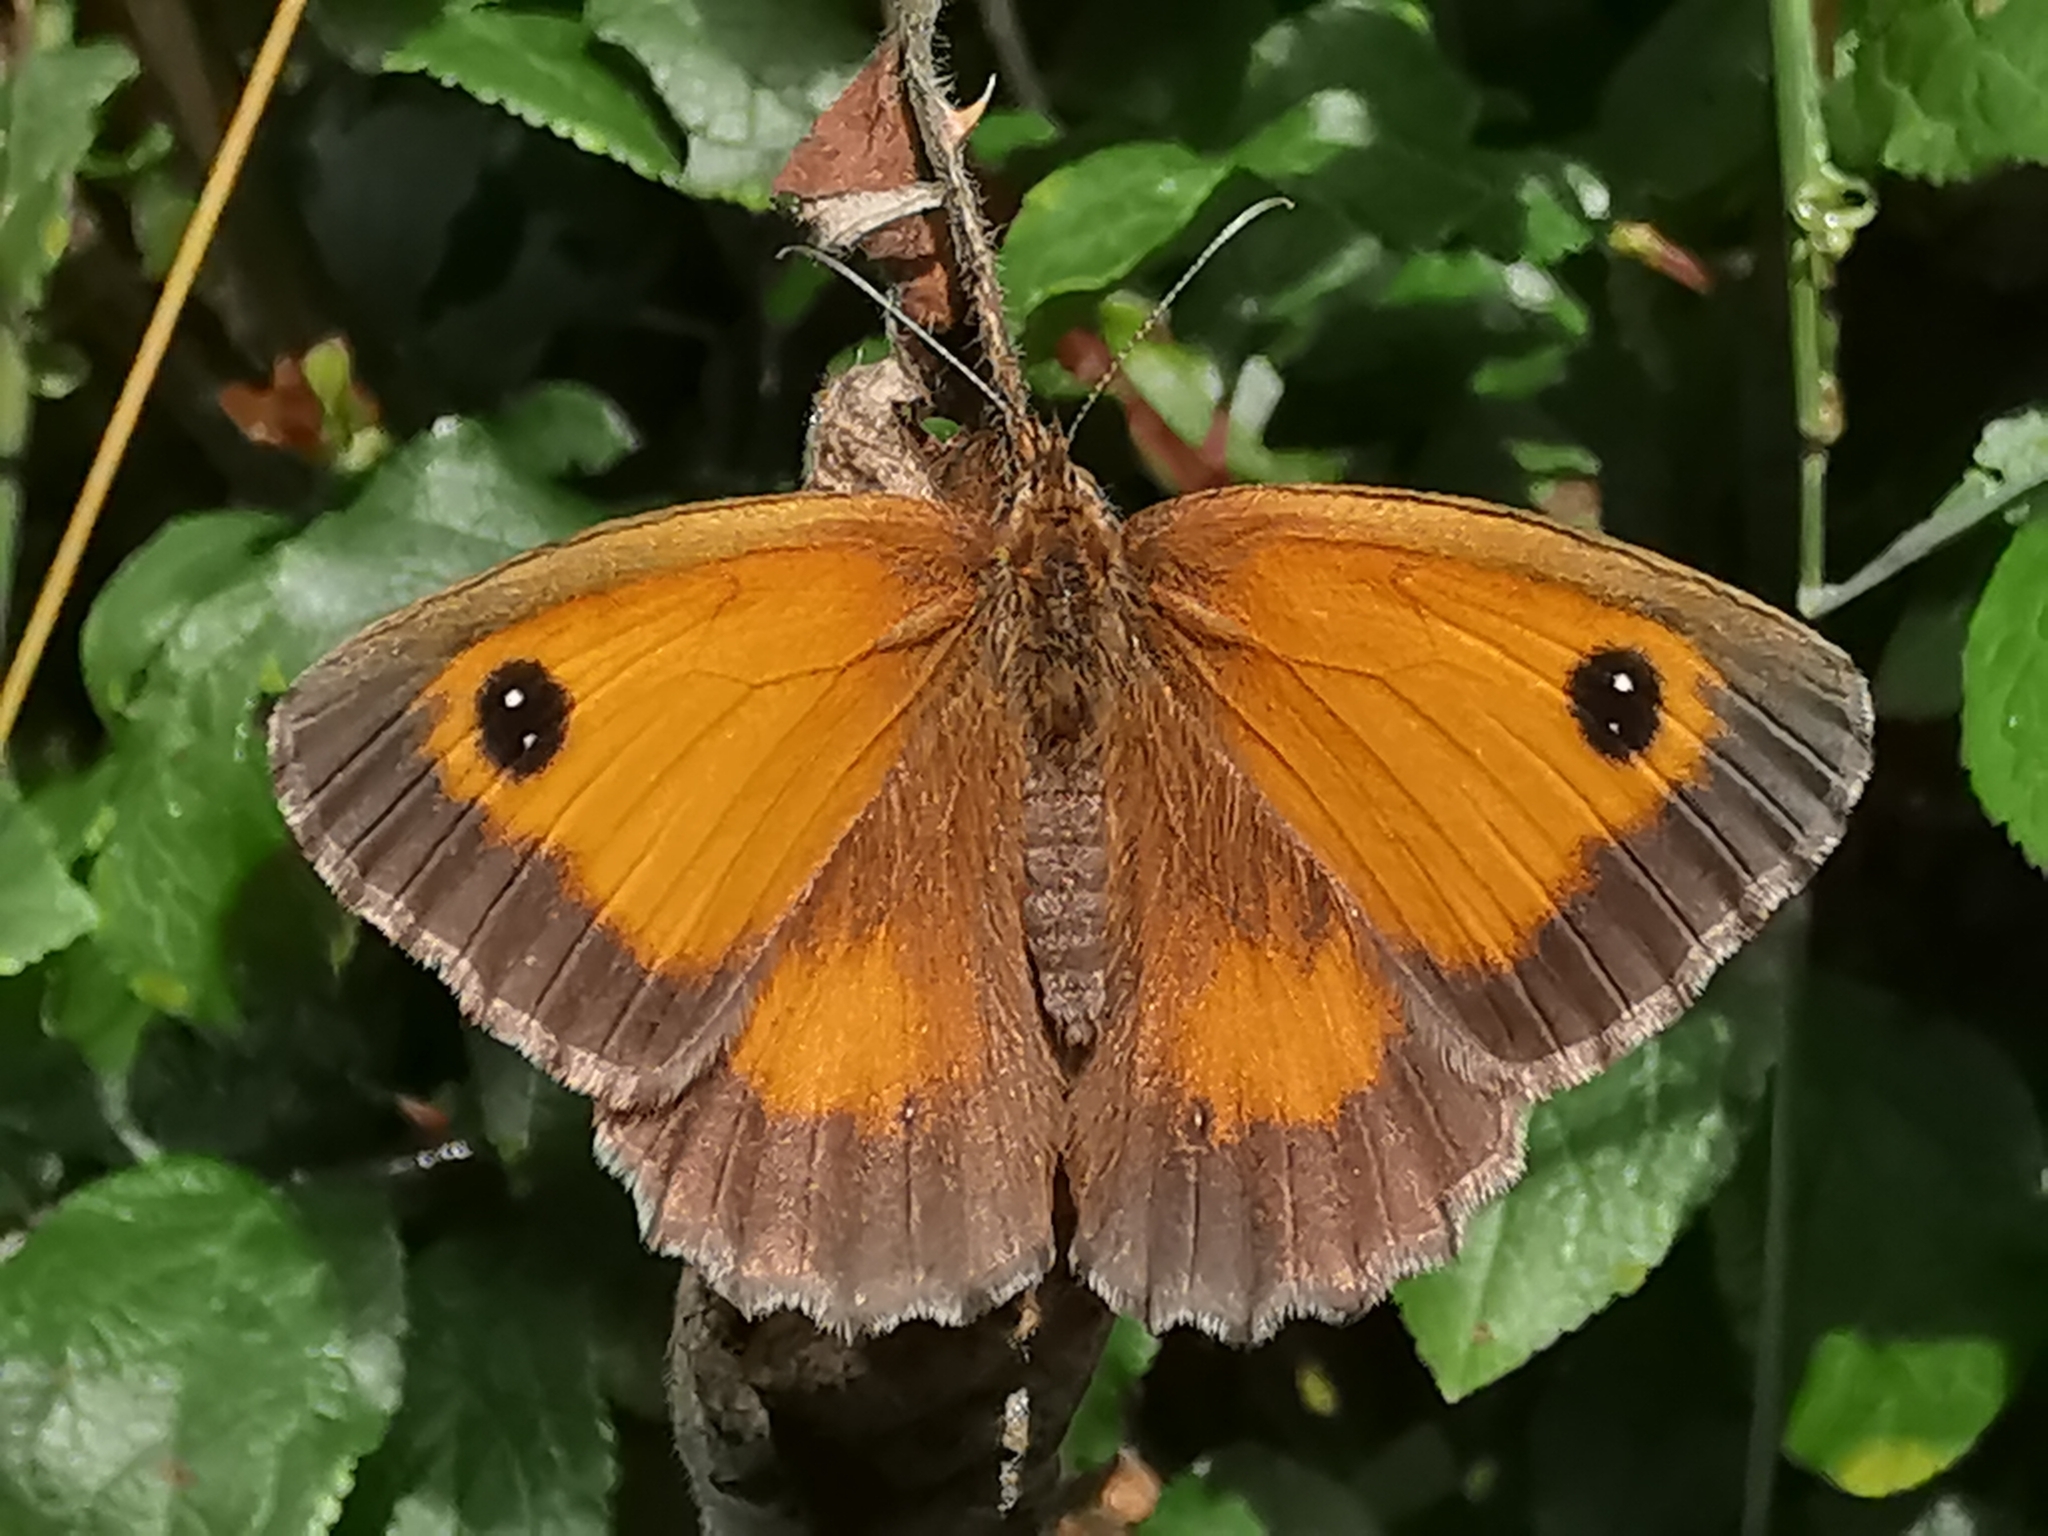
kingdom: Animalia
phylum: Arthropoda
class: Insecta
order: Lepidoptera
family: Nymphalidae
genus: Pyronia
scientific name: Pyronia tithonus
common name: Gatekeeper
